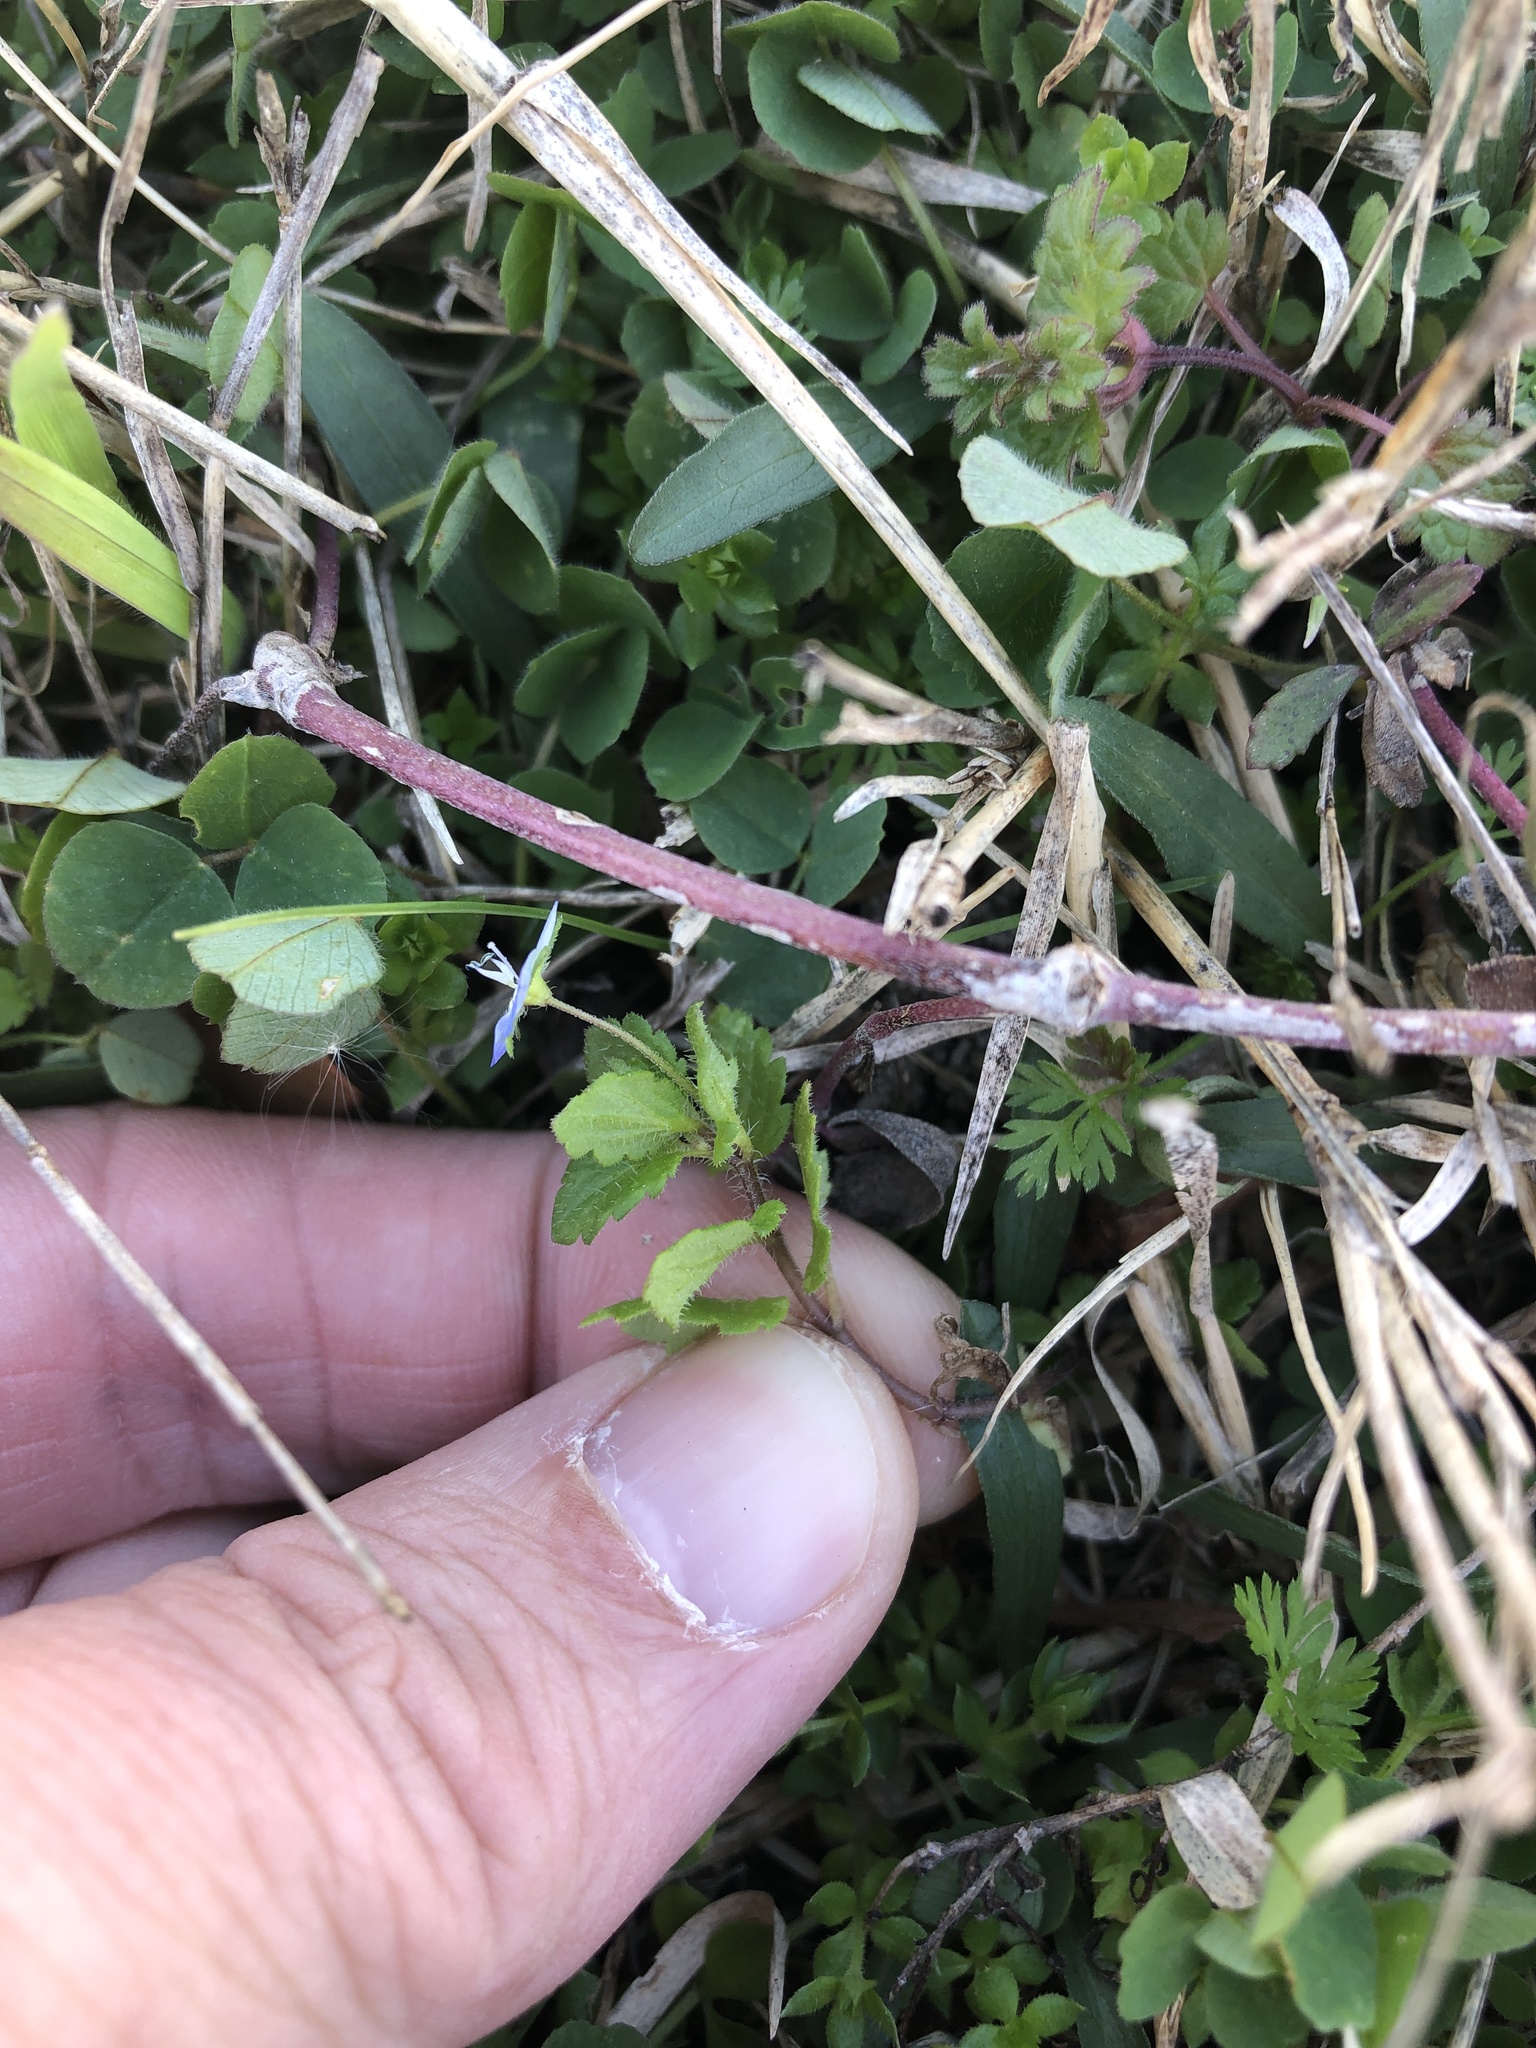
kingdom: Plantae
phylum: Tracheophyta
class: Magnoliopsida
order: Lamiales
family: Plantaginaceae
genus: Veronica
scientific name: Veronica persica
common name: Common field-speedwell
